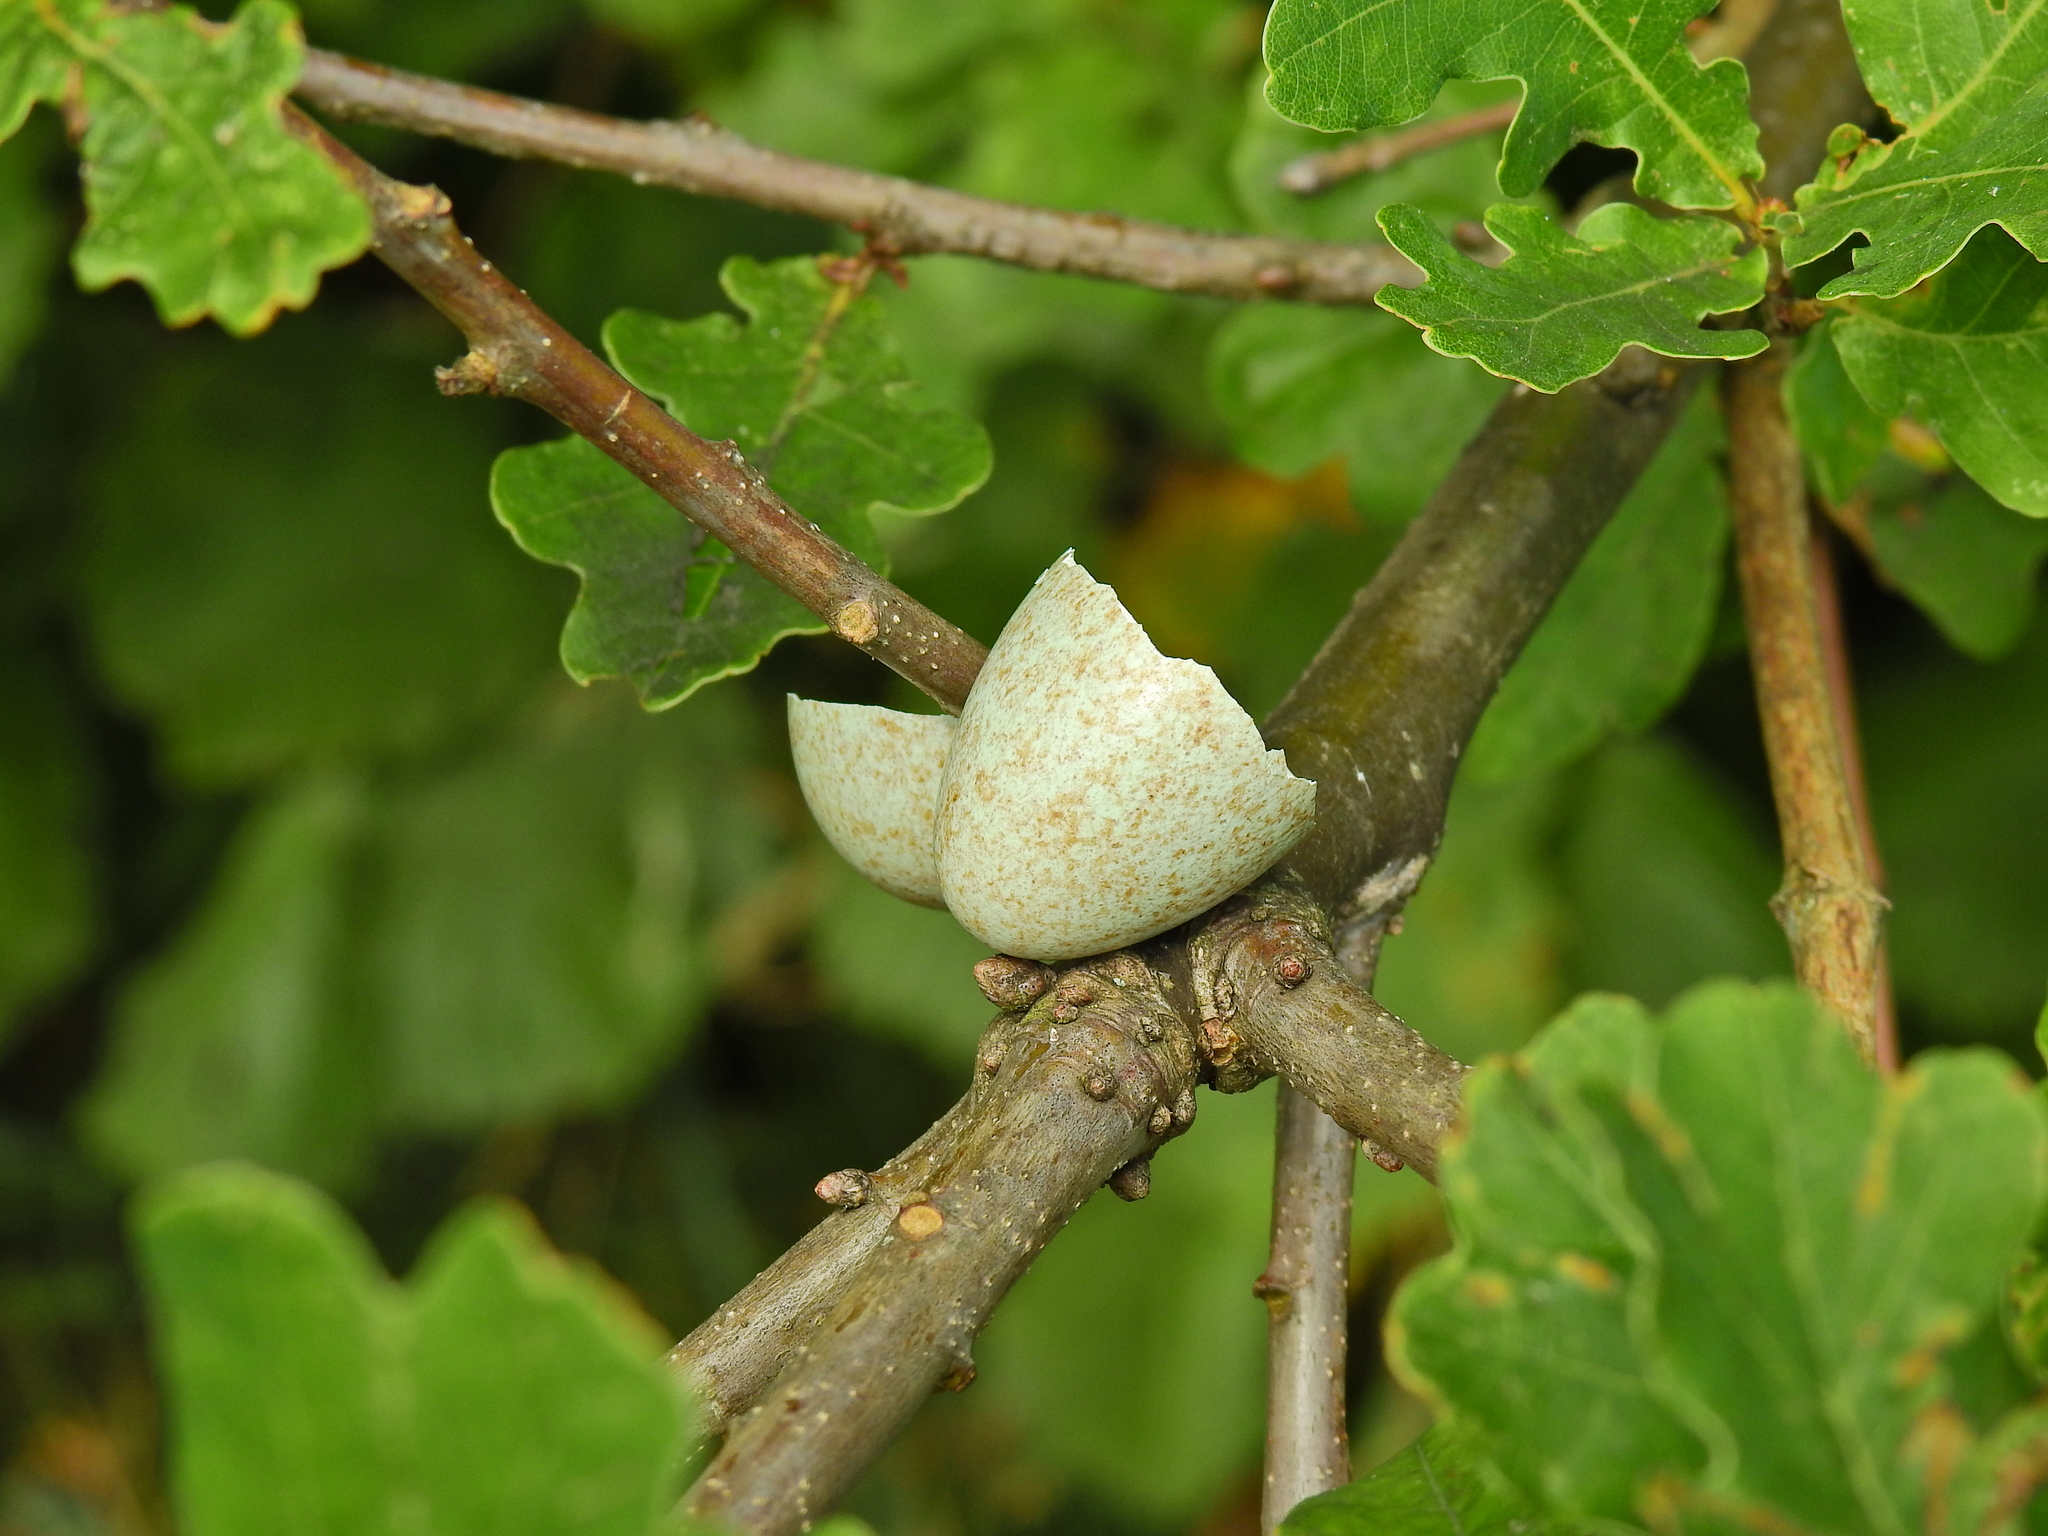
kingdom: Animalia
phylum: Chordata
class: Aves
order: Passeriformes
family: Turdidae
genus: Turdus
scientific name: Turdus merula
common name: Common blackbird
